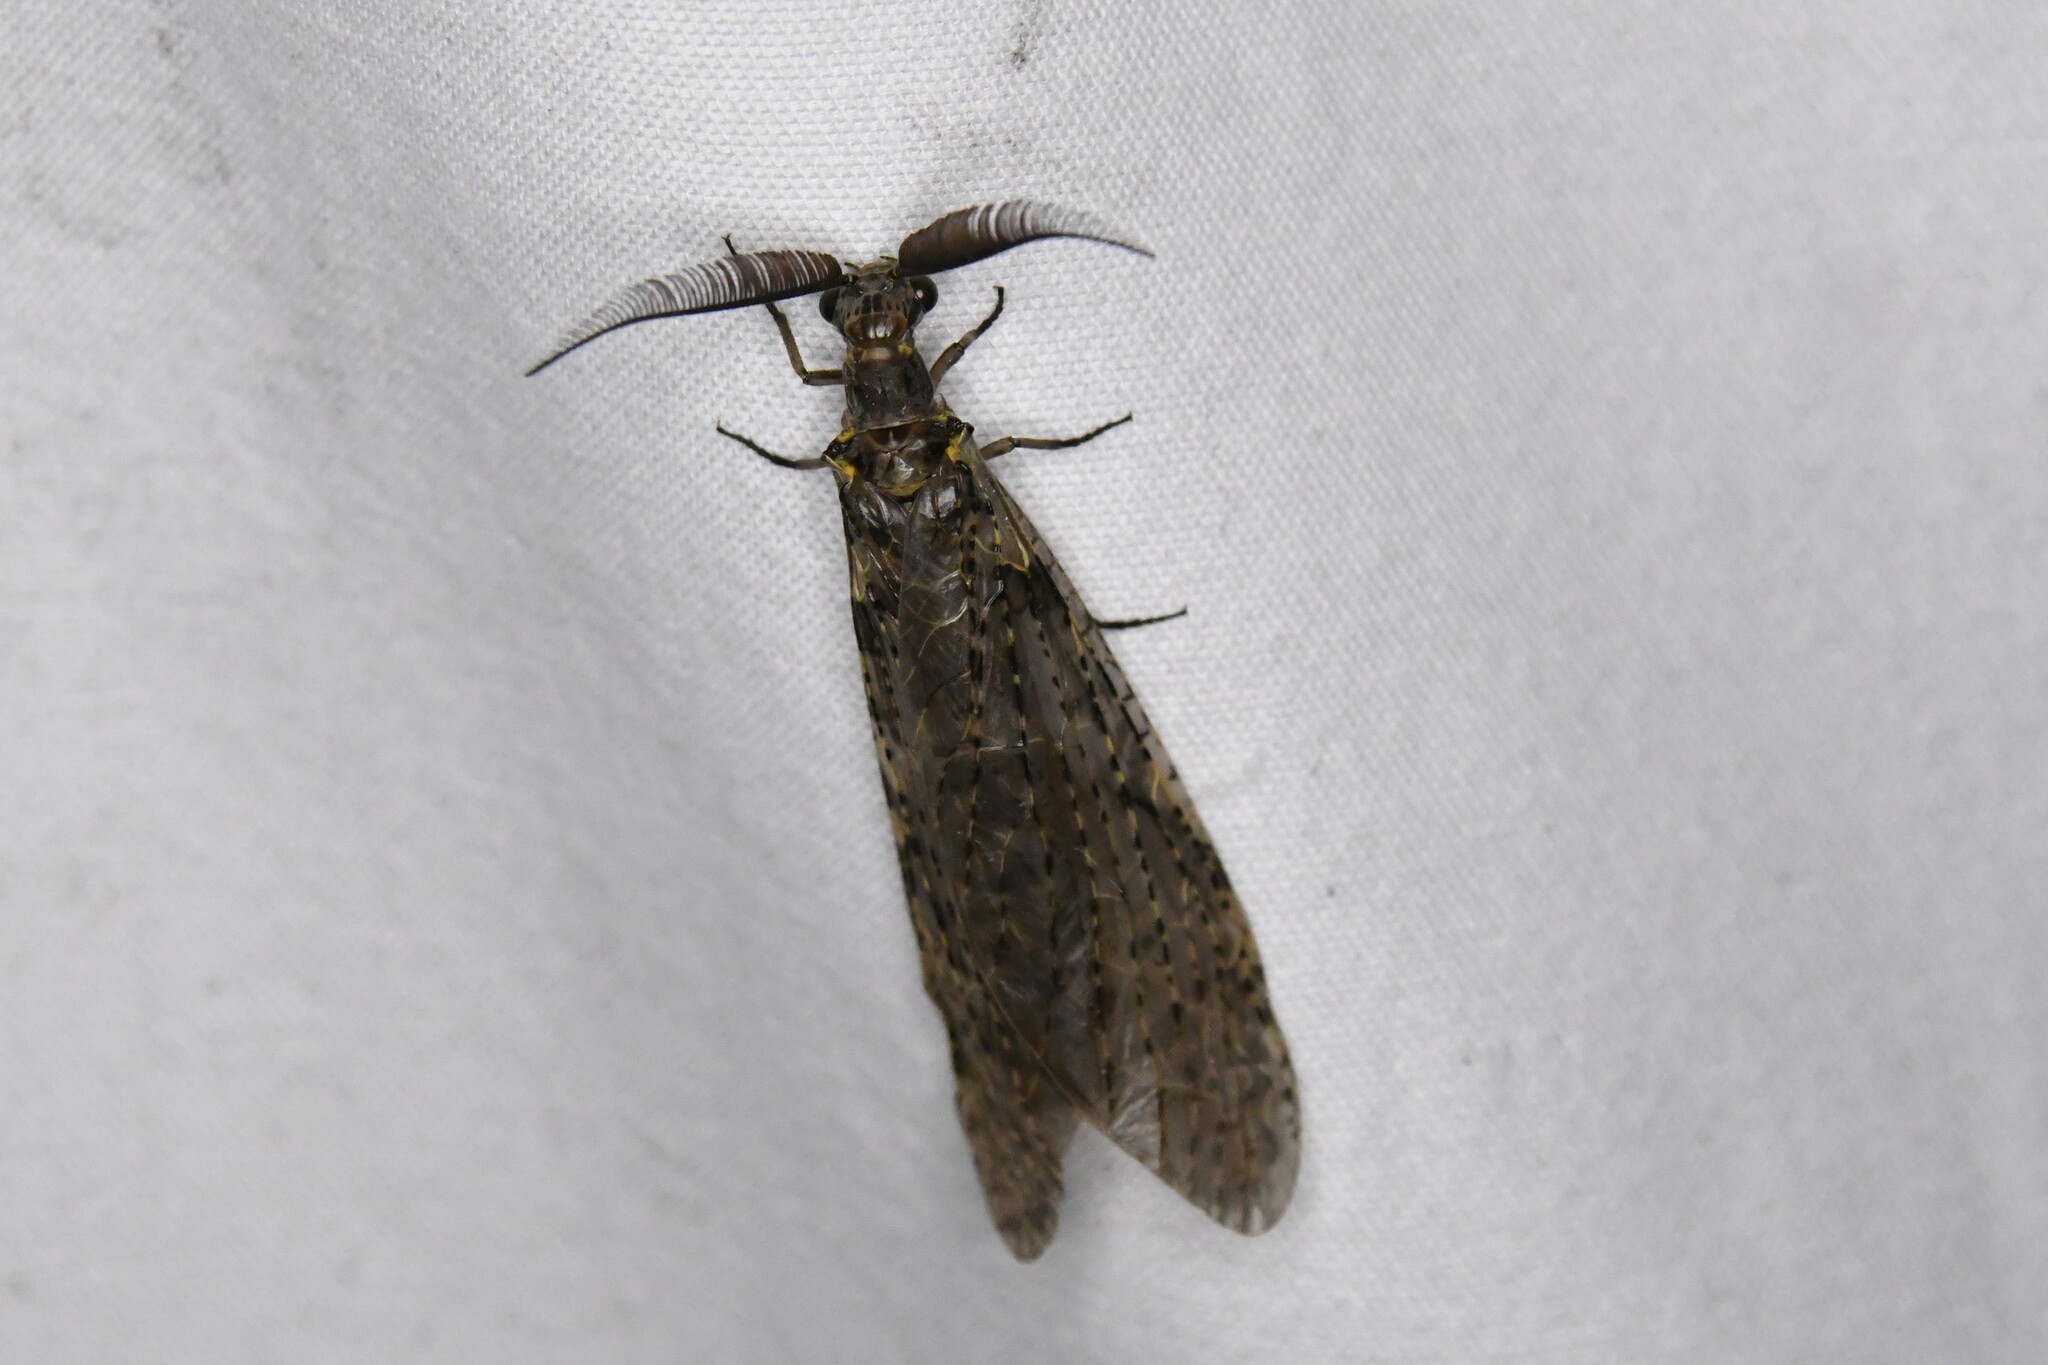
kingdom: Animalia
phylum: Arthropoda
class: Insecta
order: Megaloptera
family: Corydalidae
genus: Chauliodes
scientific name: Chauliodes rastricornis
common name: Spring fishfly
